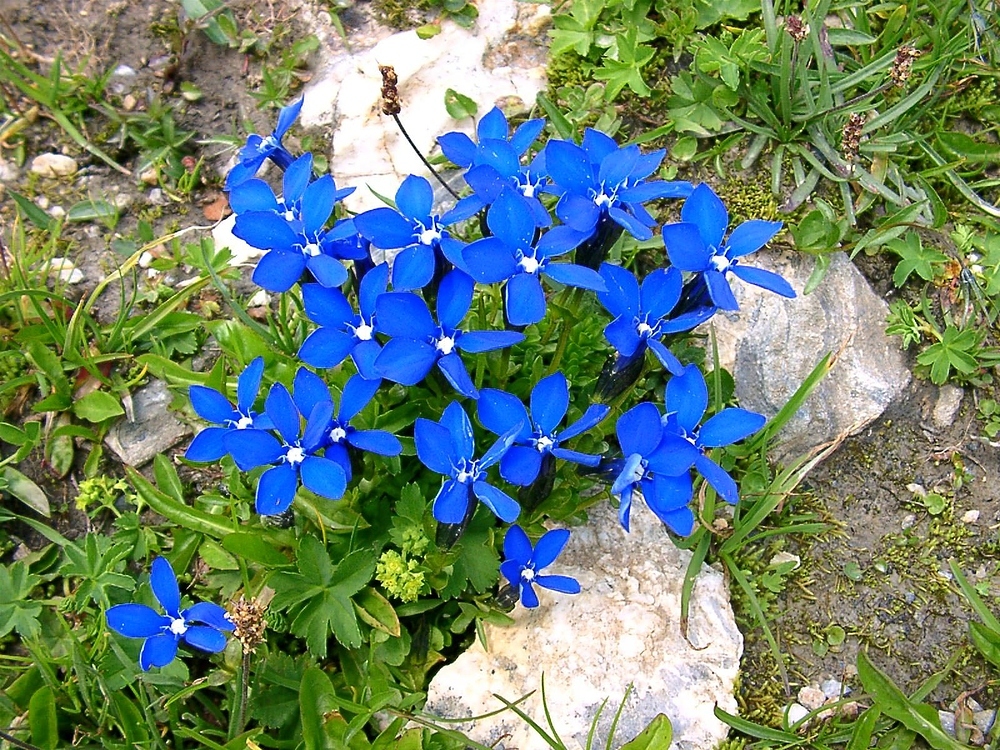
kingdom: Plantae
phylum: Tracheophyta
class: Magnoliopsida
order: Gentianales
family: Gentianaceae
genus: Gentiana
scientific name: Gentiana bavarica
